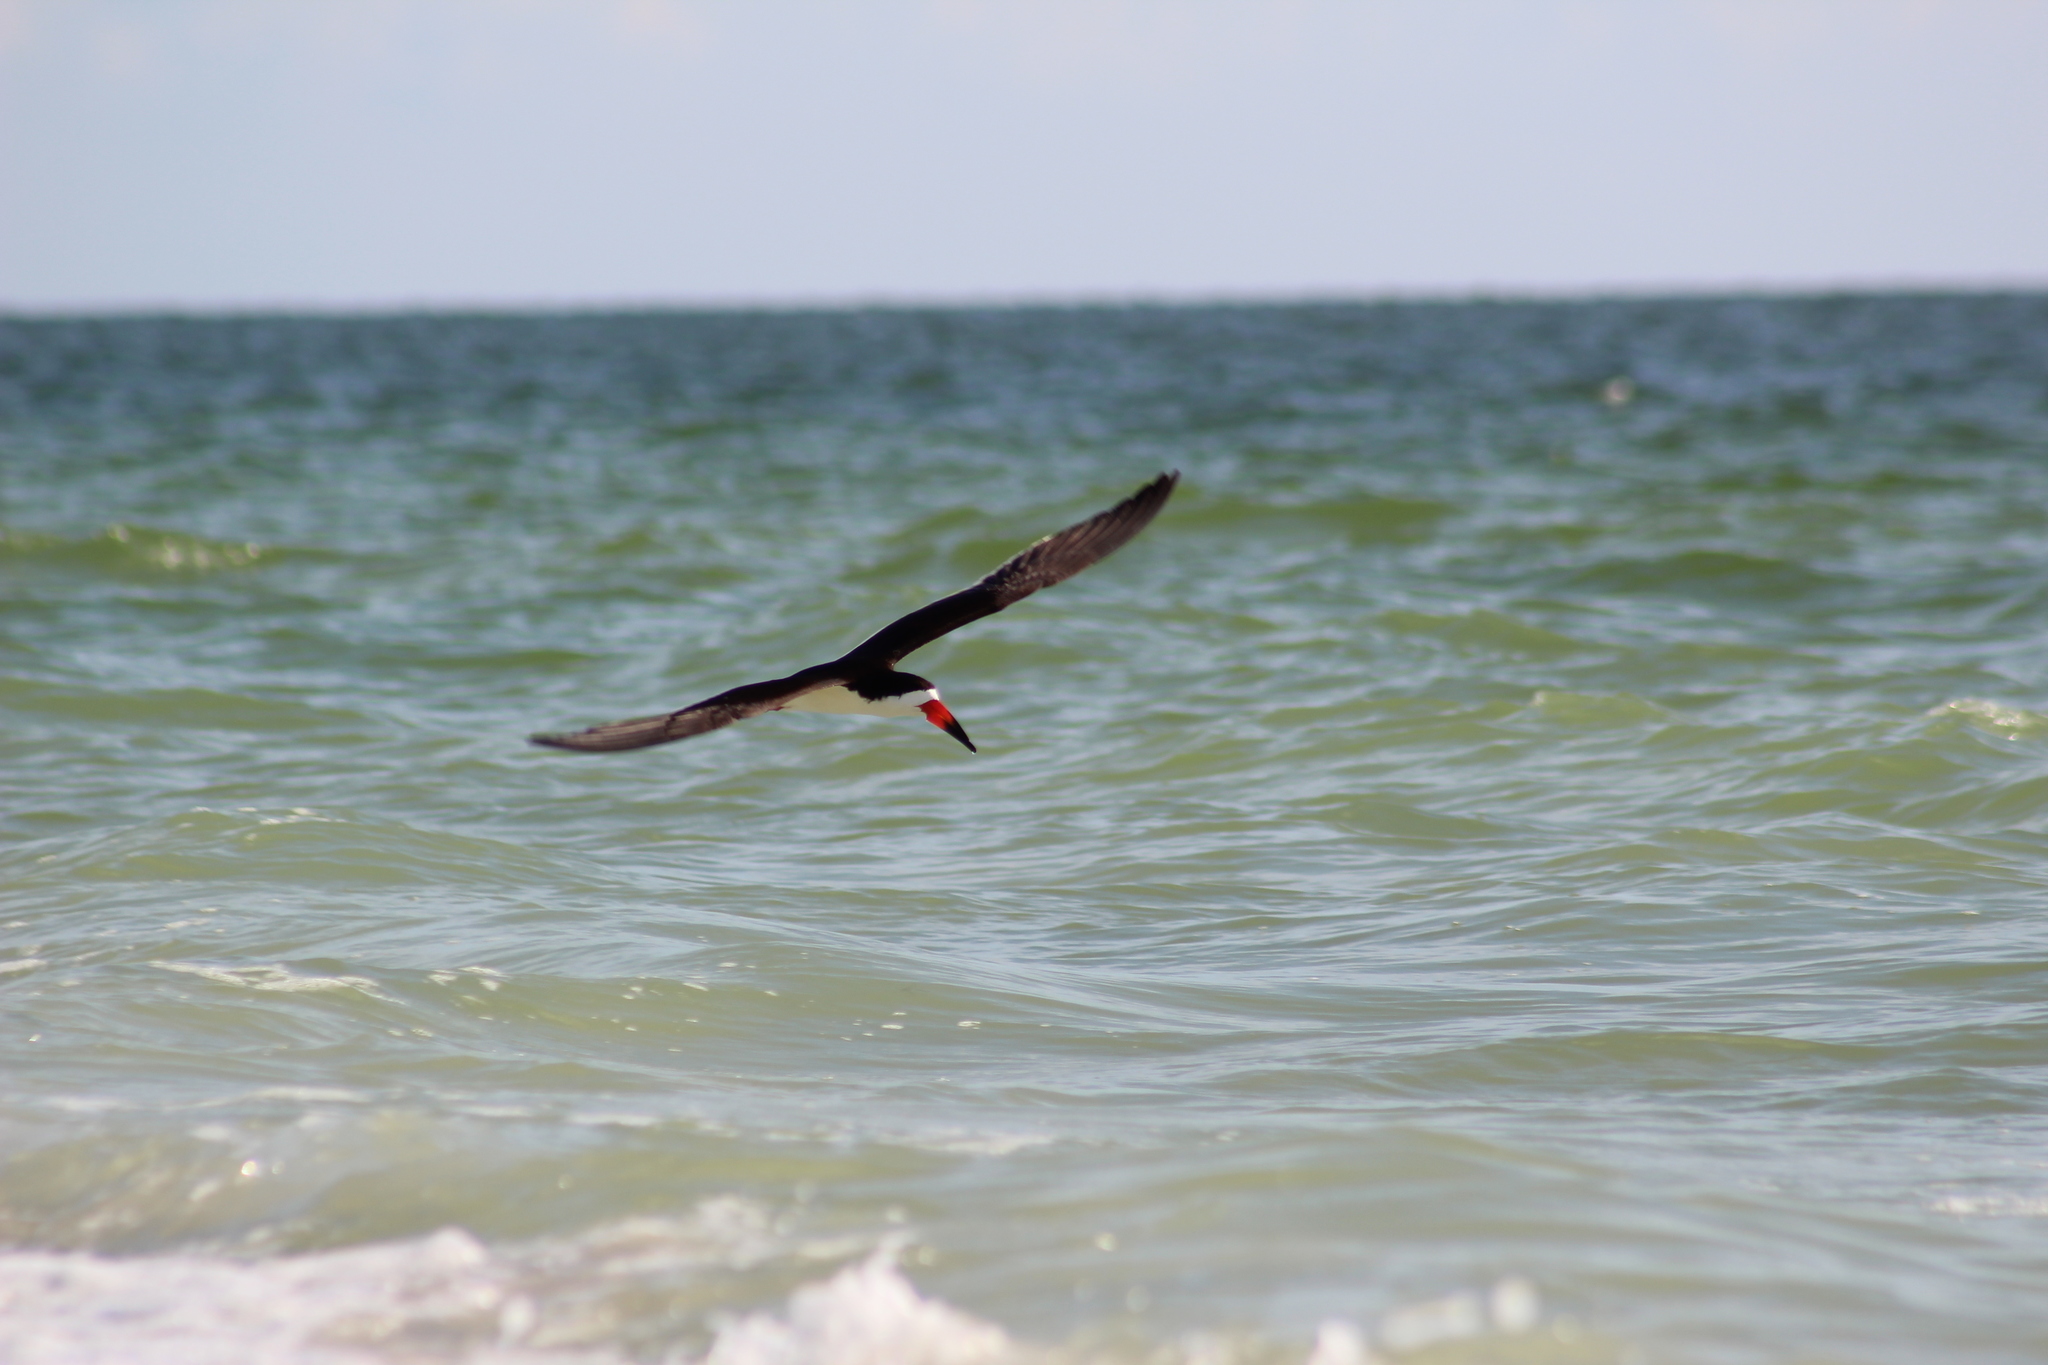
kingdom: Animalia
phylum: Chordata
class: Aves
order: Charadriiformes
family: Laridae
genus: Rynchops
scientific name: Rynchops niger
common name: Black skimmer
